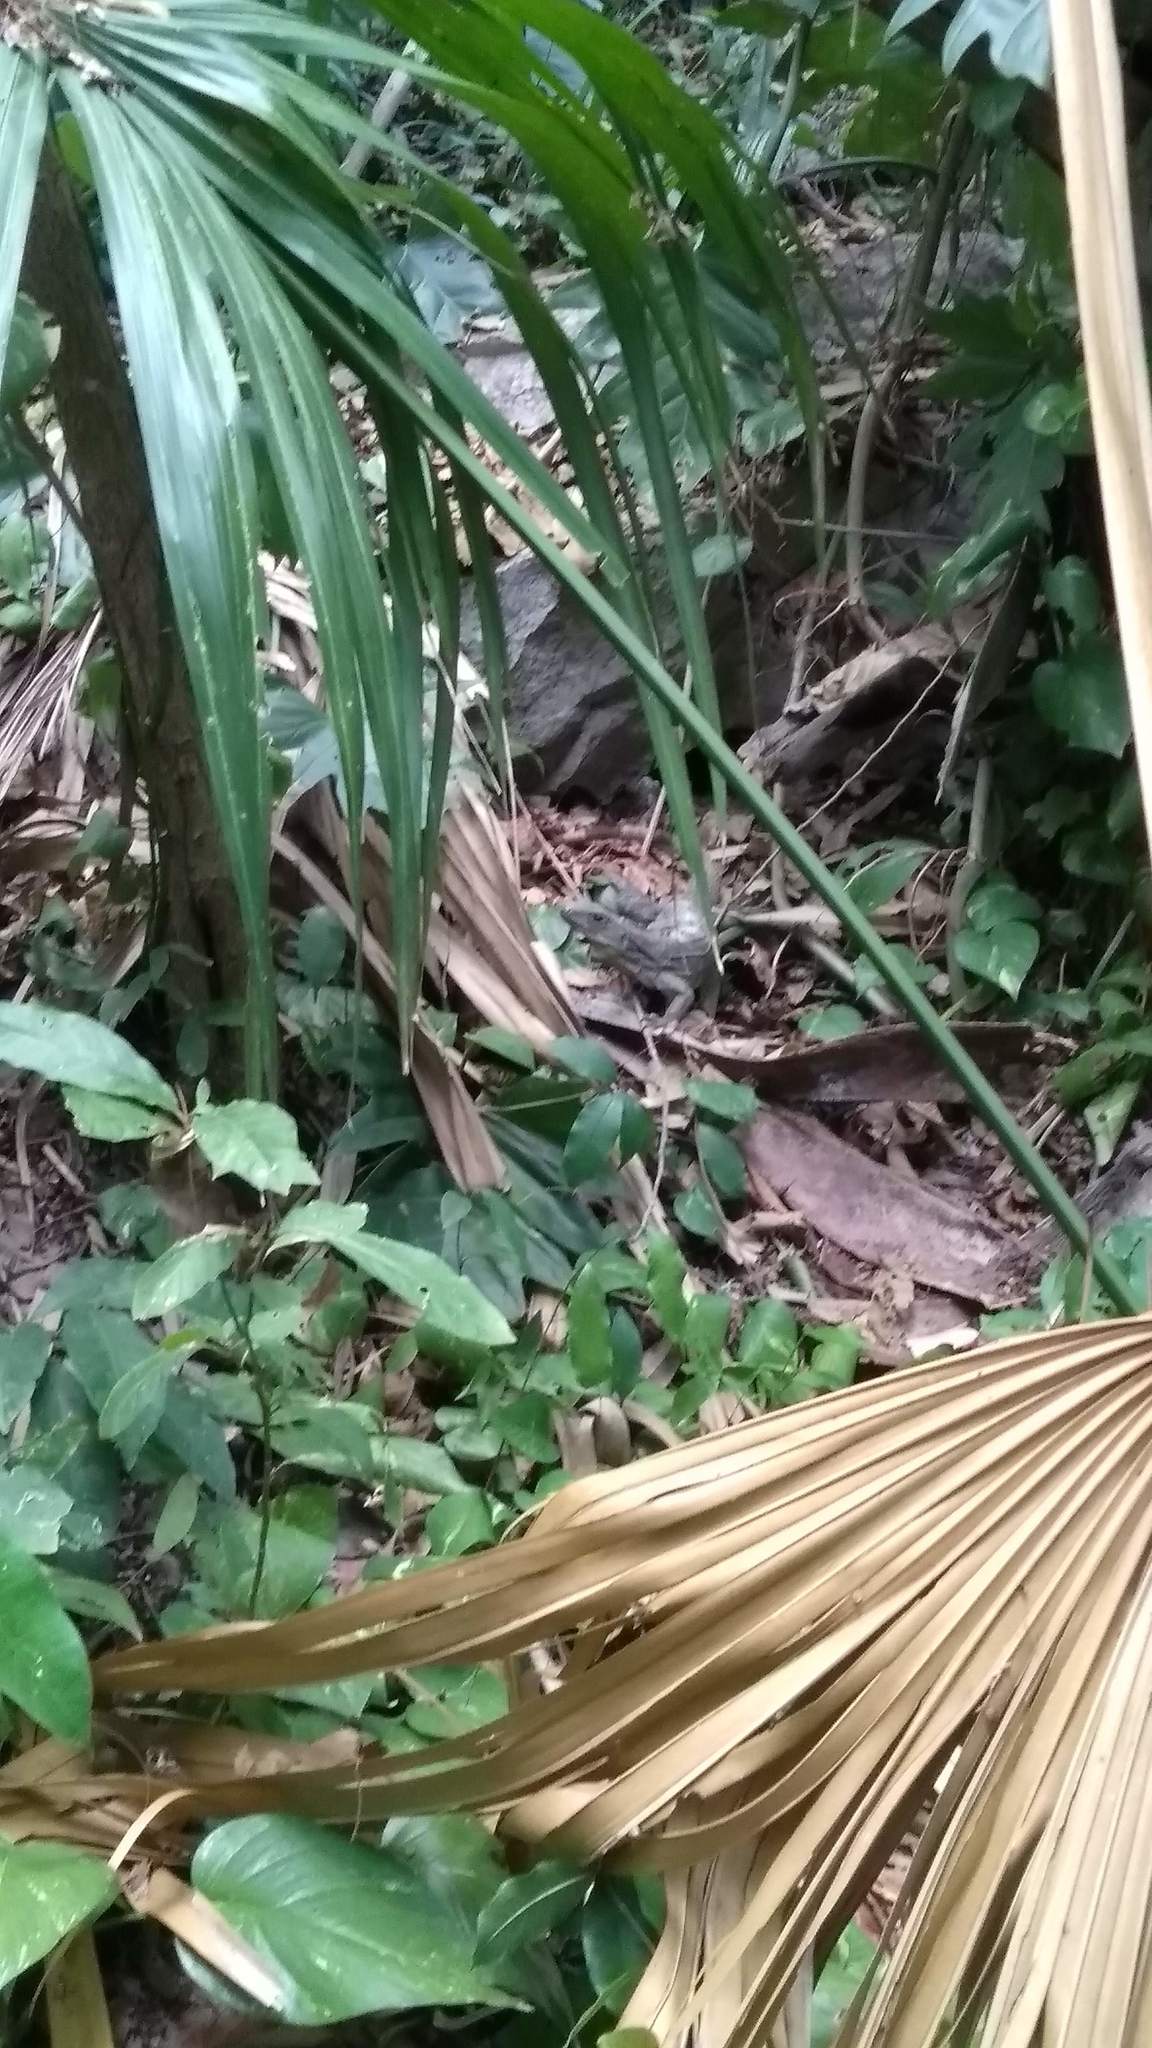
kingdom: Animalia
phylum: Chordata
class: Squamata
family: Iguanidae
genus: Ctenosaura
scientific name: Ctenosaura similis
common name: Black spiny-tailed iguana
